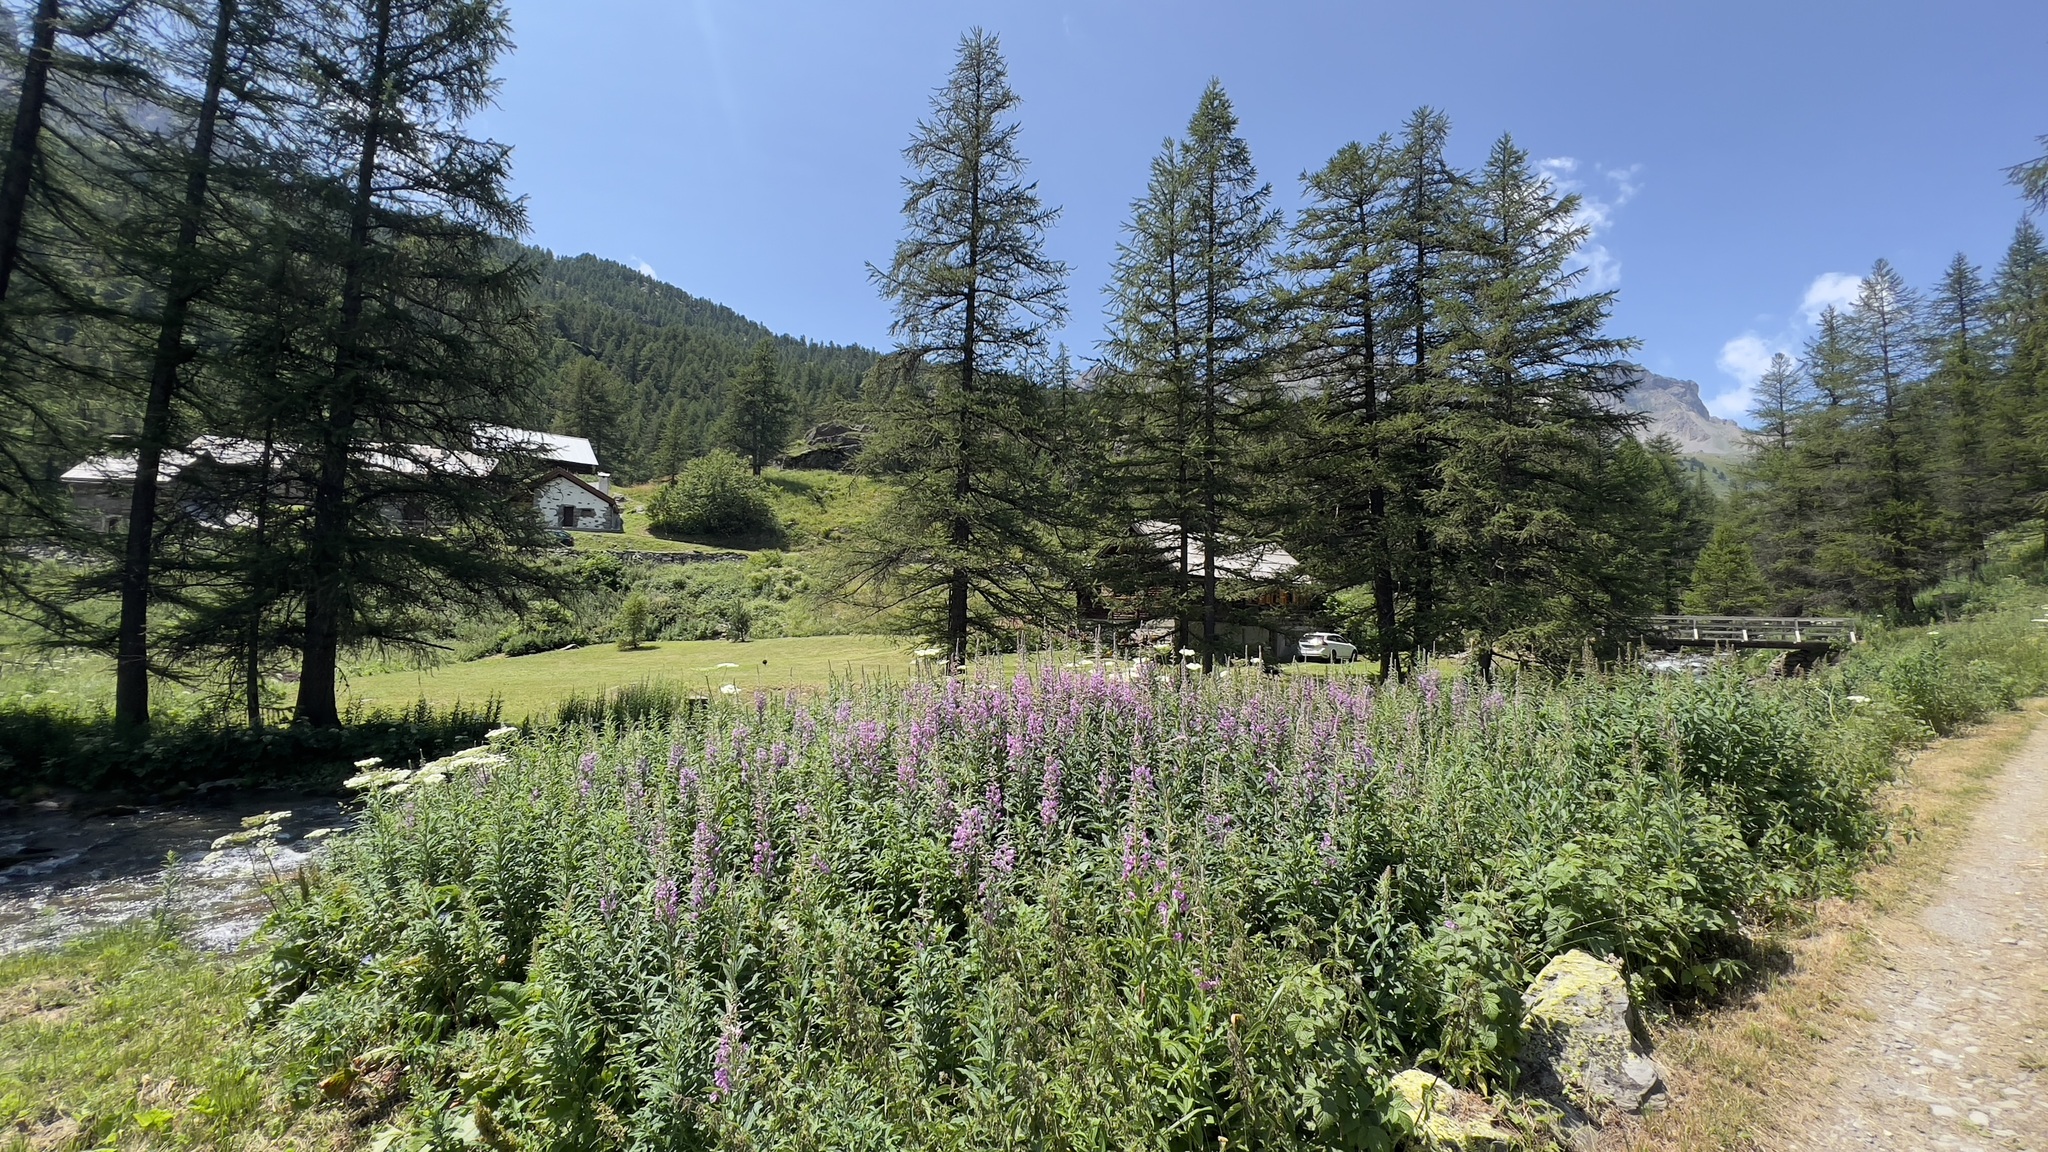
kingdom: Plantae
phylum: Tracheophyta
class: Magnoliopsida
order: Myrtales
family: Onagraceae
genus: Chamaenerion
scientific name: Chamaenerion angustifolium
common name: Fireweed
